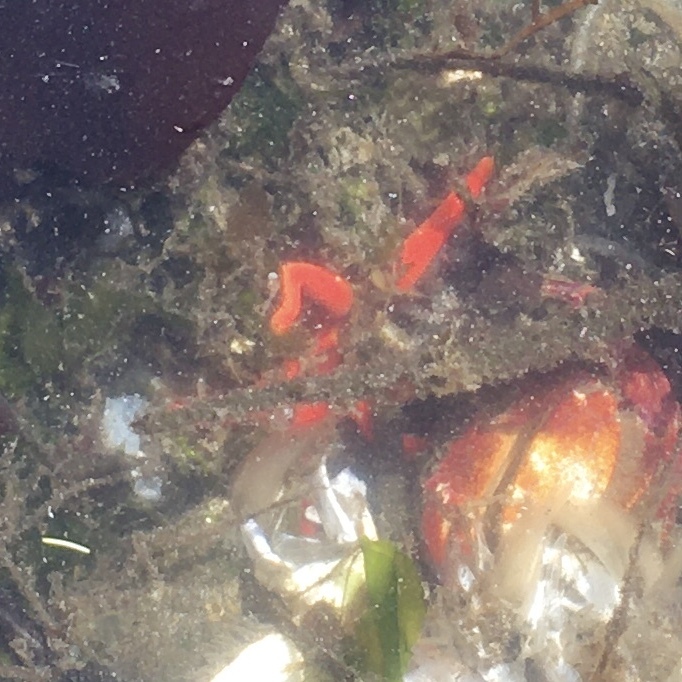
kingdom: Animalia
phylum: Echinodermata
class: Asteroidea
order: Spinulosida
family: Echinasteridae
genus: Henricia
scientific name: Henricia leviuscula
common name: Pacific blood star
